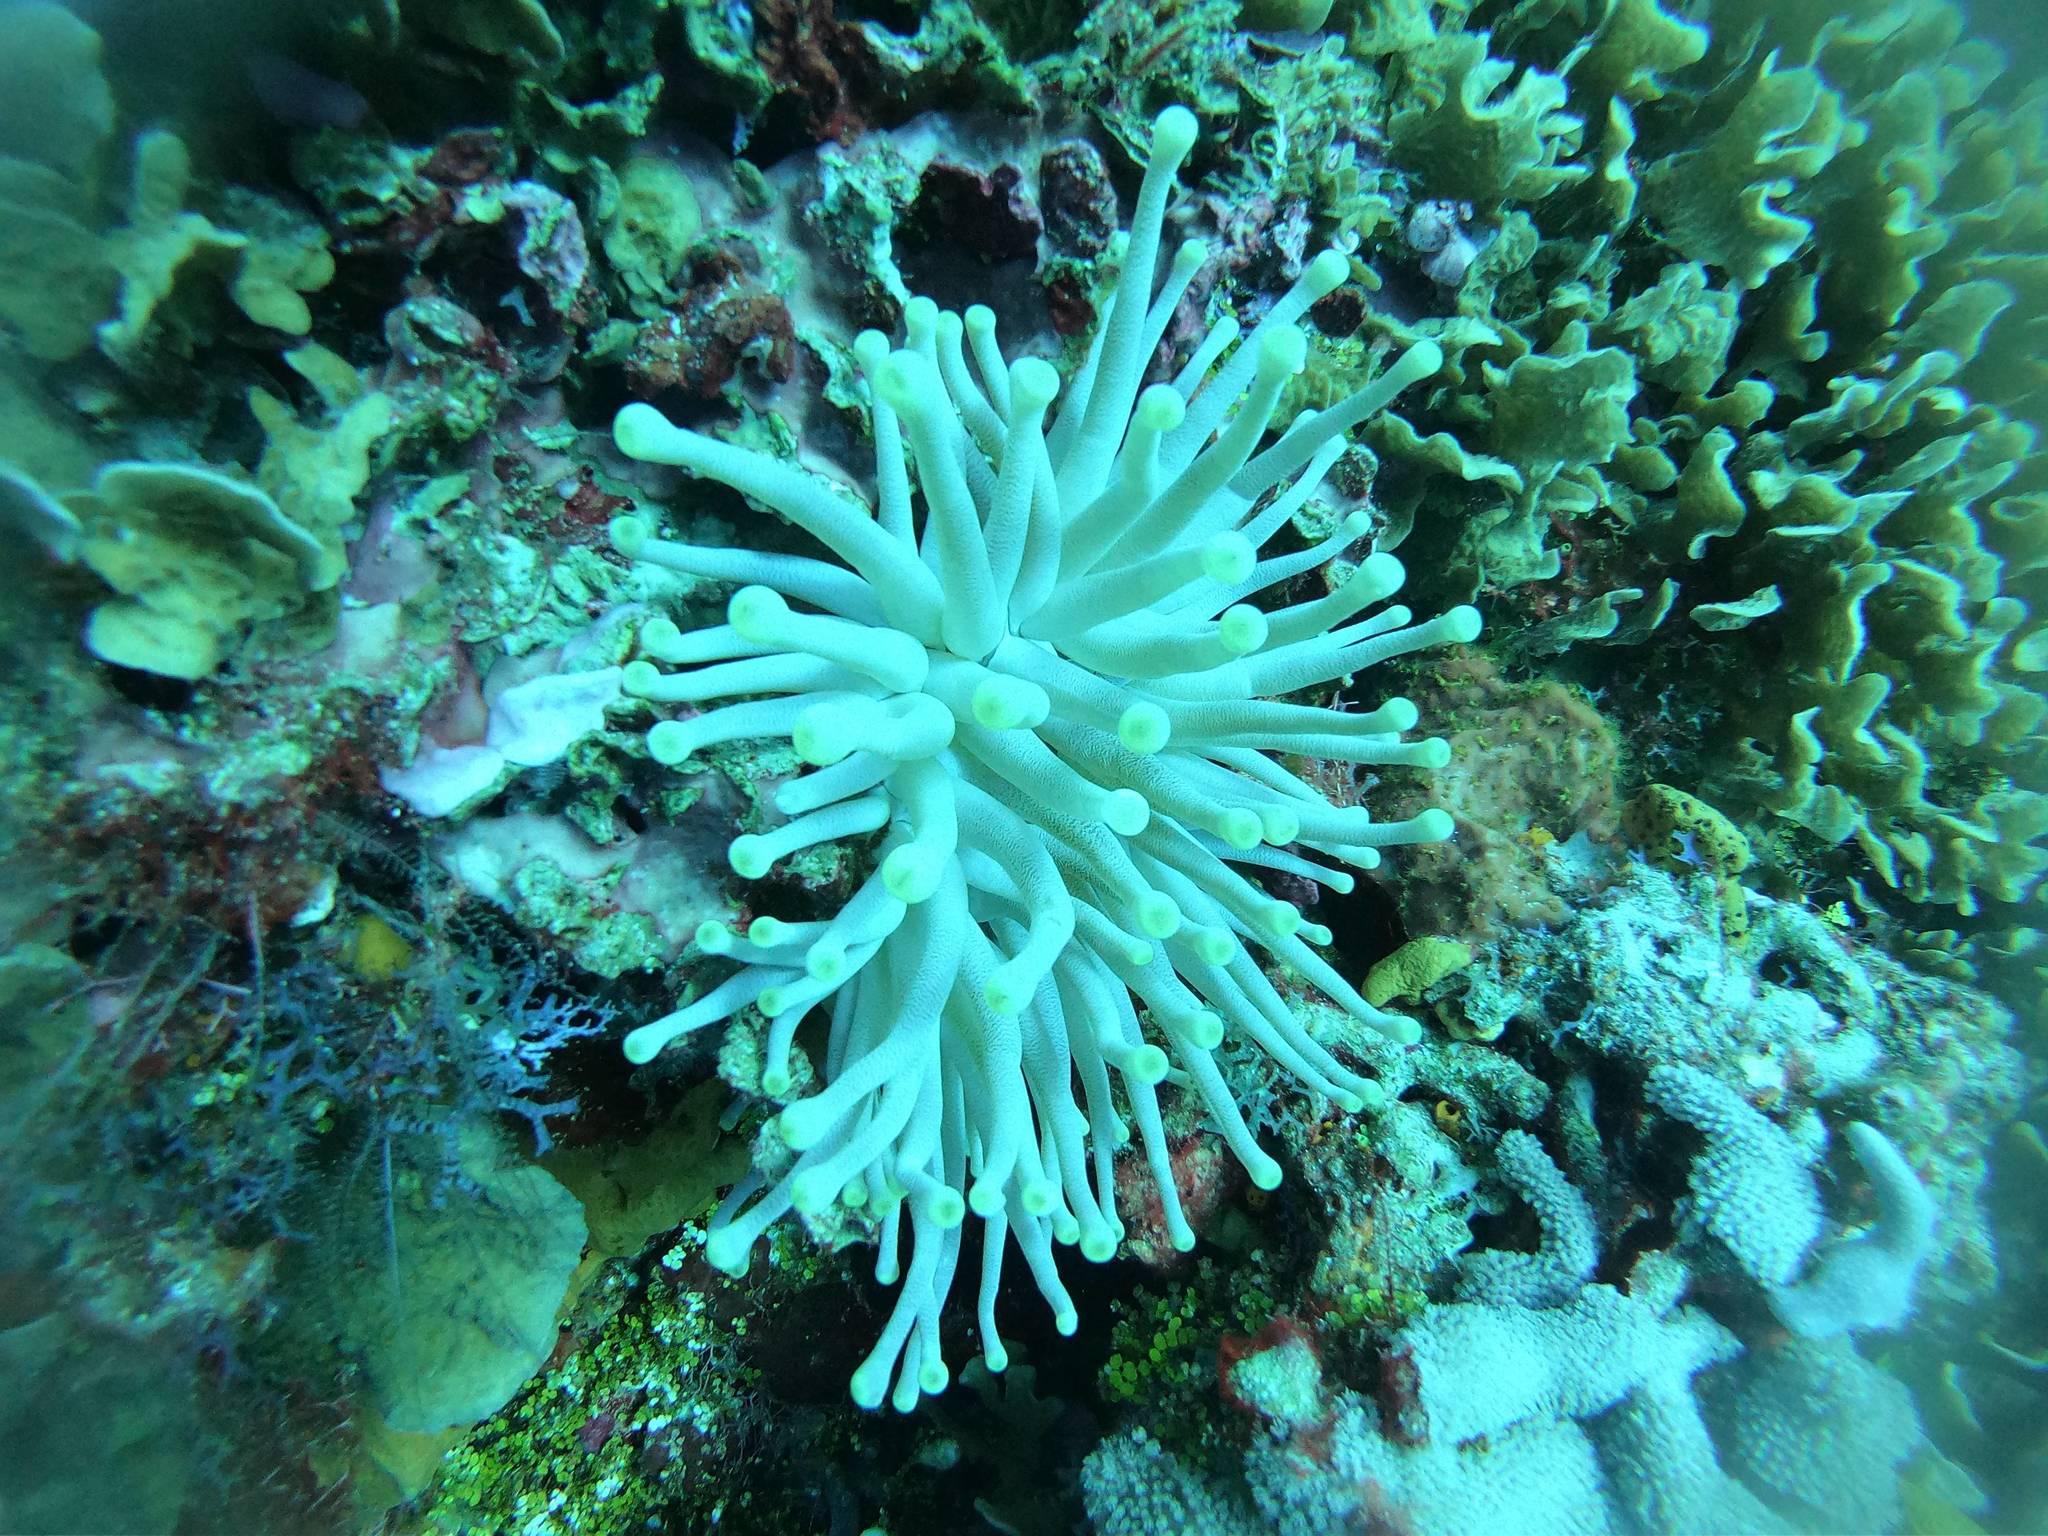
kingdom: Animalia
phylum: Cnidaria
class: Anthozoa
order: Actiniaria
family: Actiniidae
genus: Condylactis
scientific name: Condylactis gigantea
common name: Giant caribbean anemone
